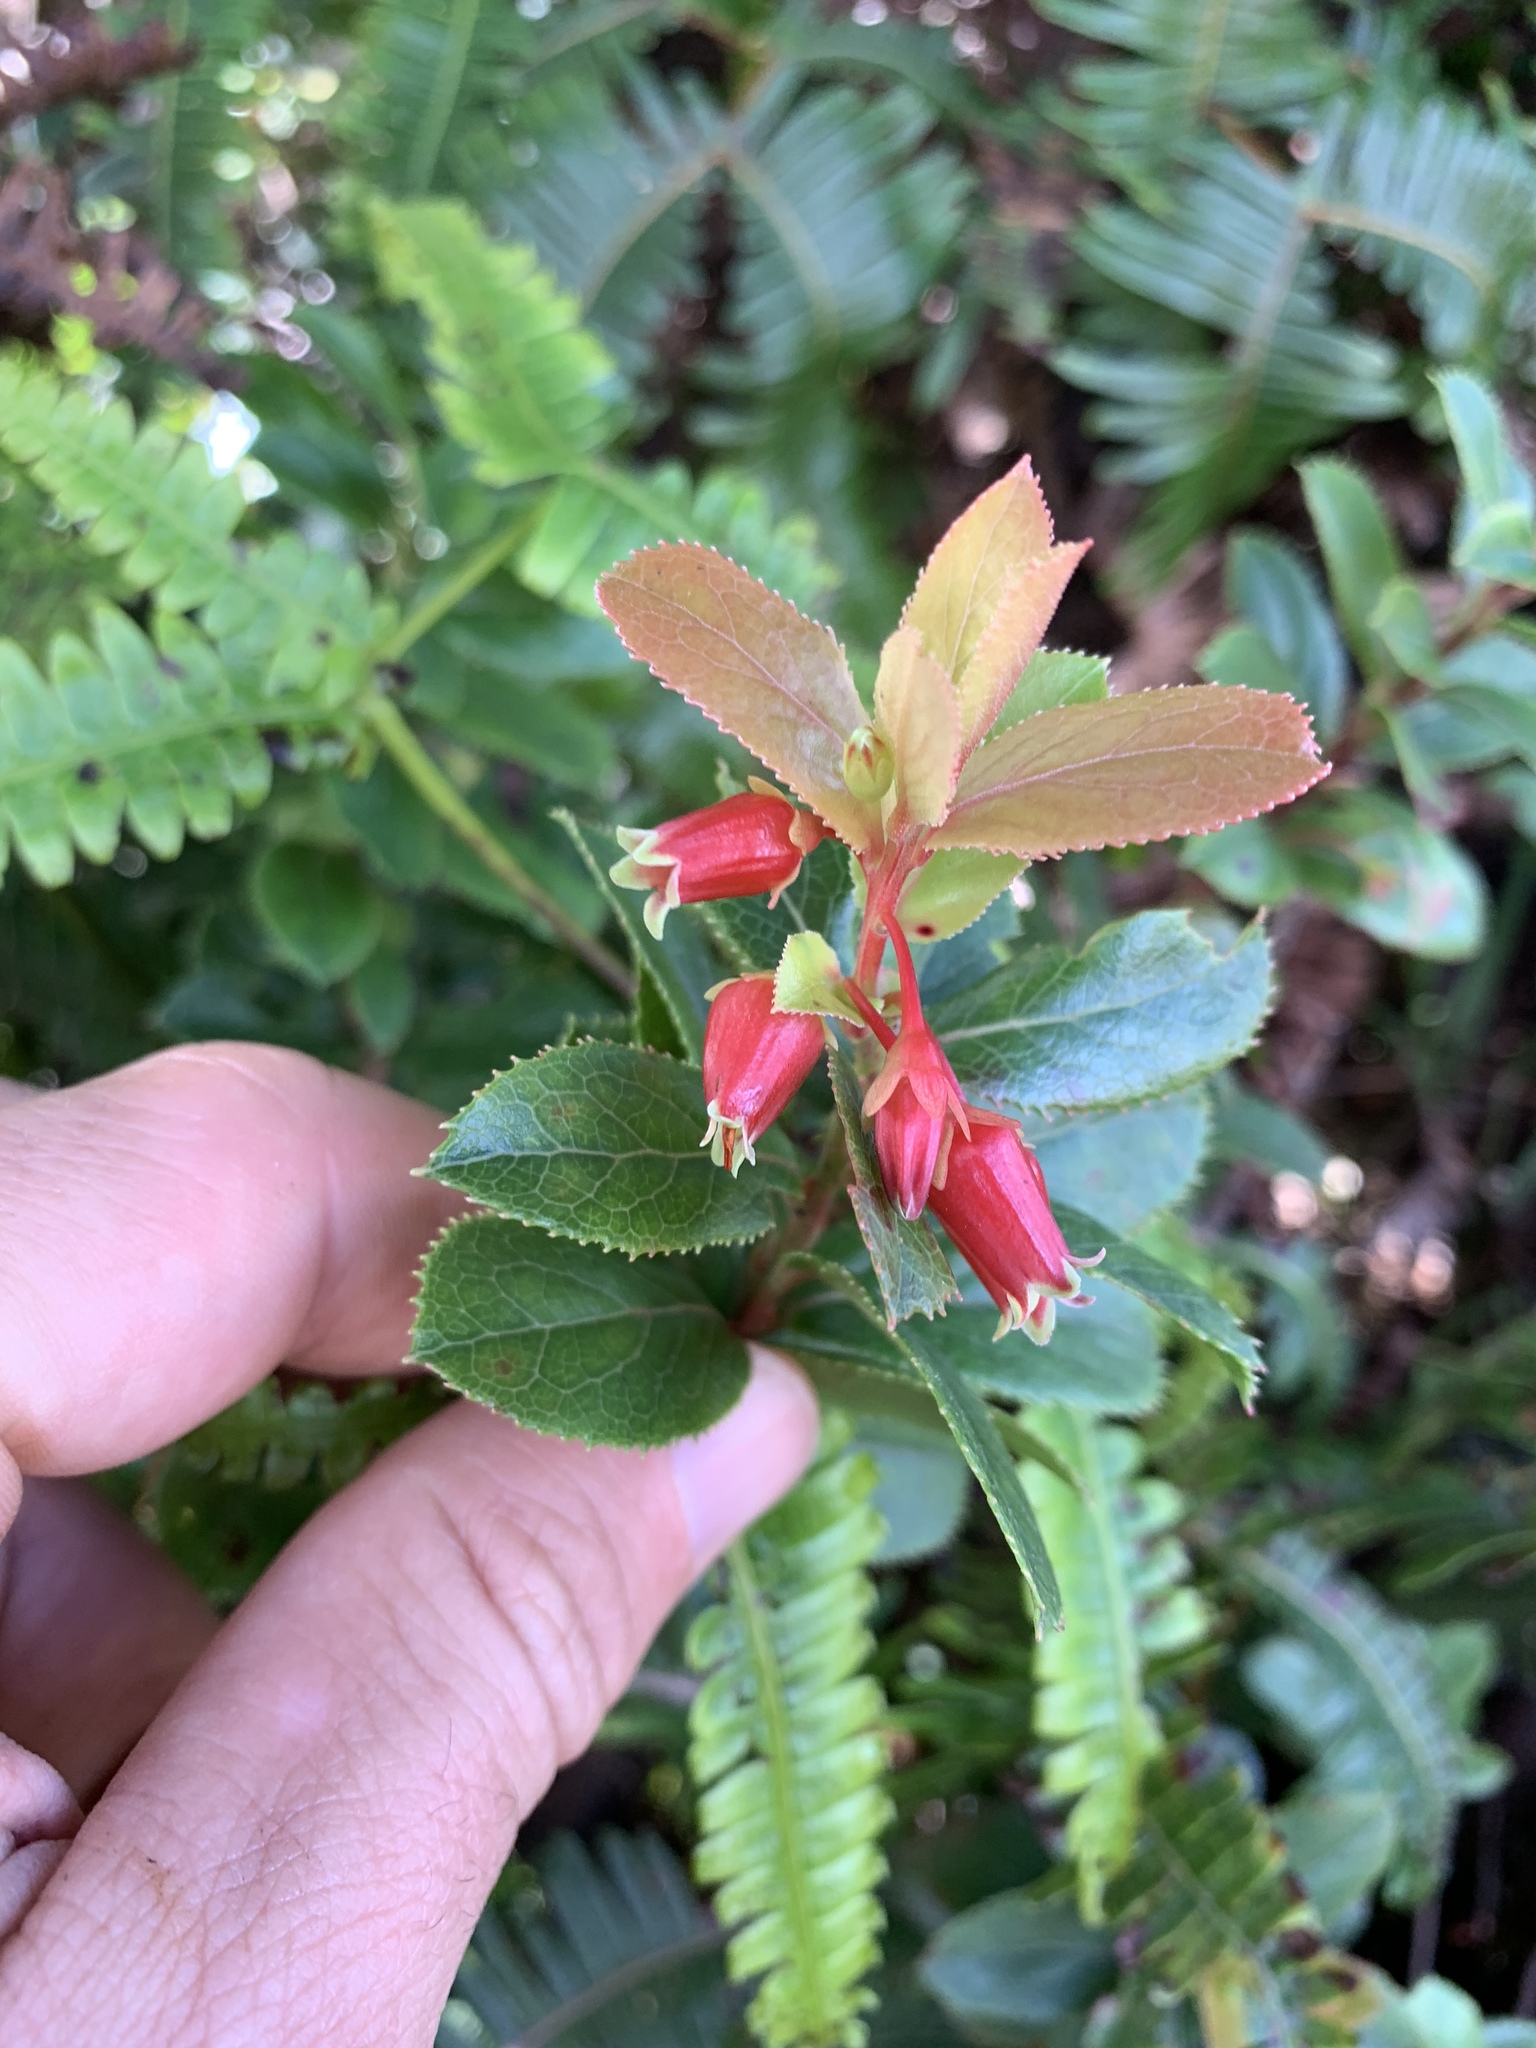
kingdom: Plantae
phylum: Tracheophyta
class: Magnoliopsida
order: Ericales
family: Ericaceae
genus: Vaccinium
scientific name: Vaccinium dentatum
